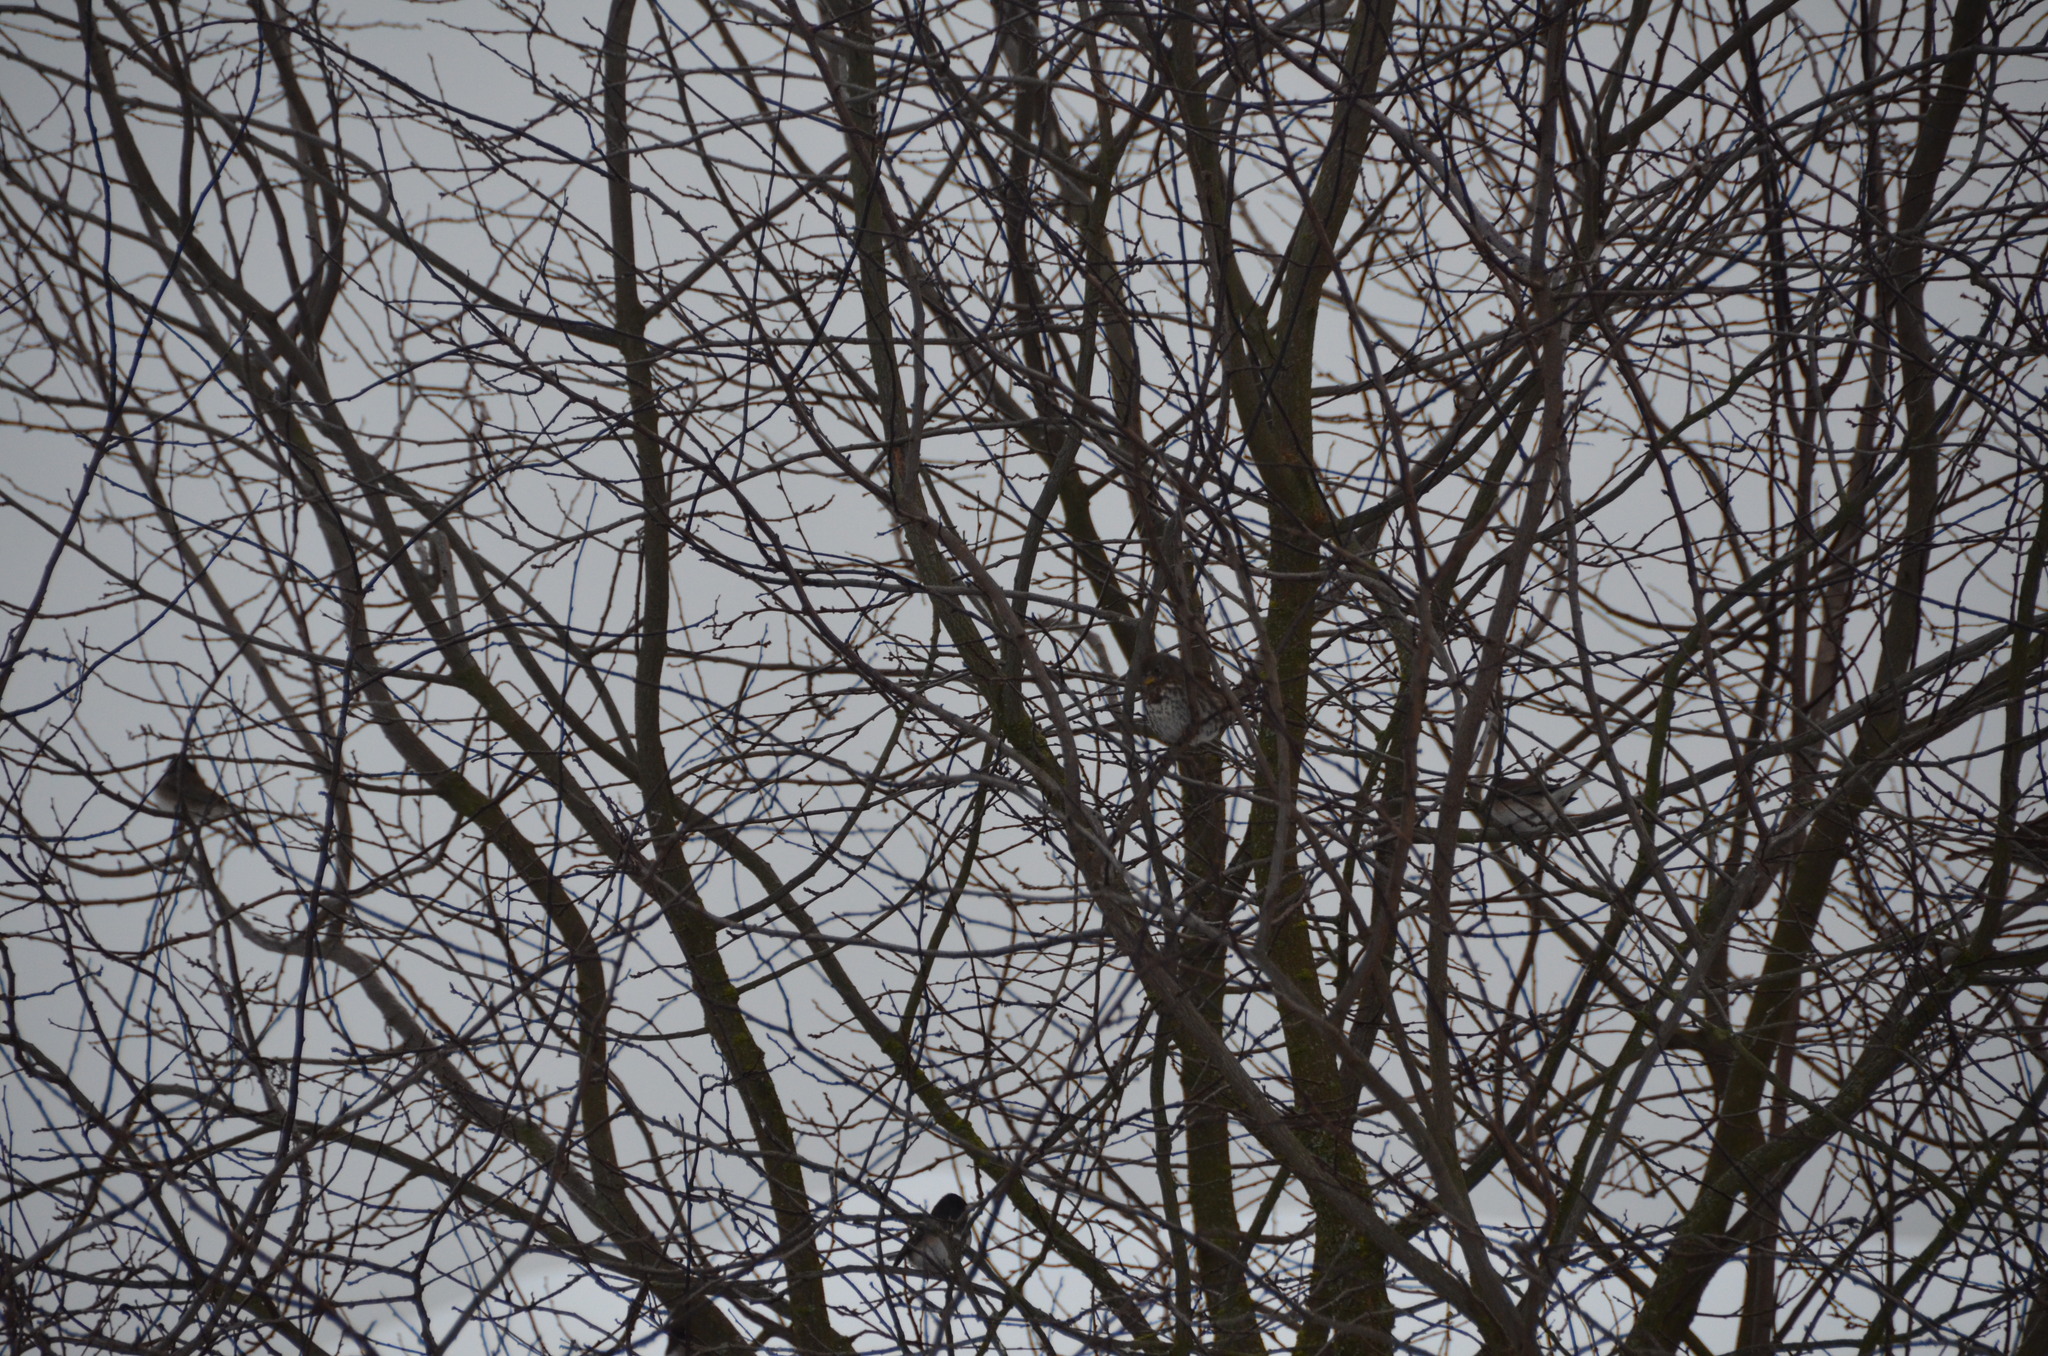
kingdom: Animalia
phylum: Chordata
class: Aves
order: Passeriformes
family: Passerellidae
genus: Passerella
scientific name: Passerella iliaca
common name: Fox sparrow
